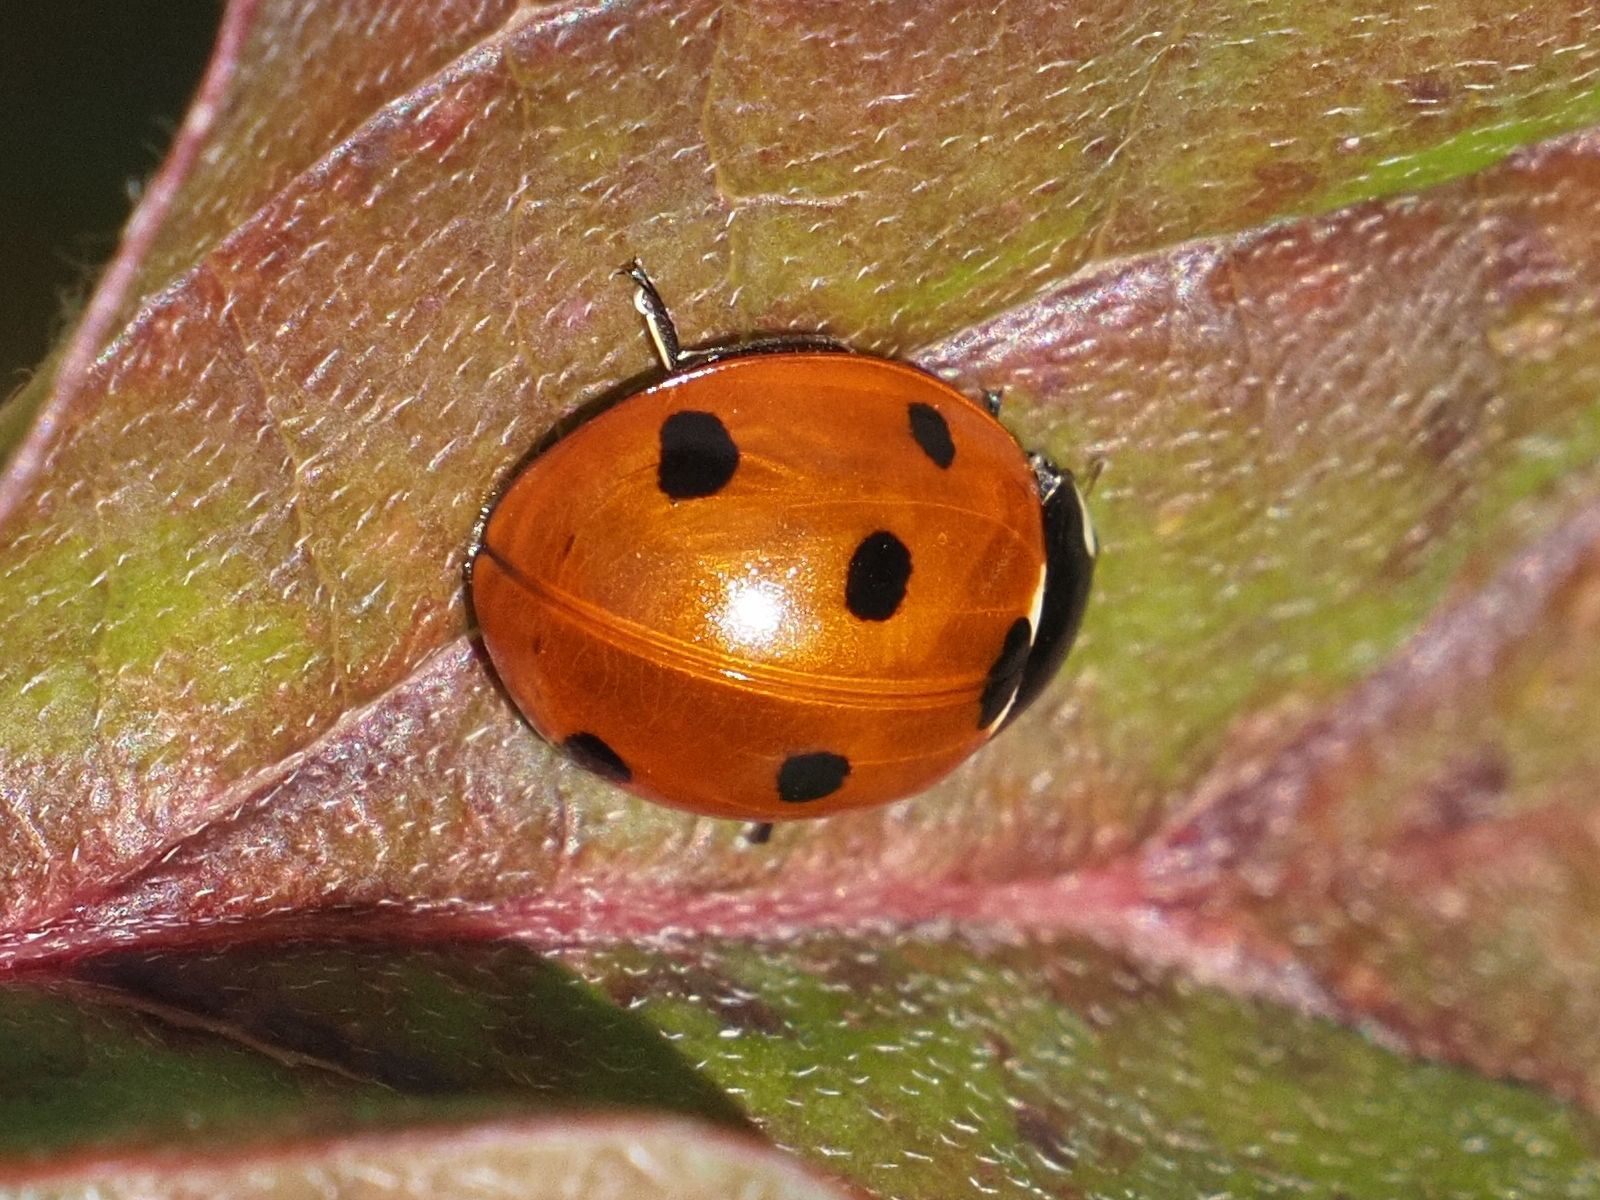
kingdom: Animalia
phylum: Arthropoda
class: Insecta
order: Coleoptera
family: Coccinellidae
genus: Coccinella
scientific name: Coccinella septempunctata
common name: Sevenspotted lady beetle
